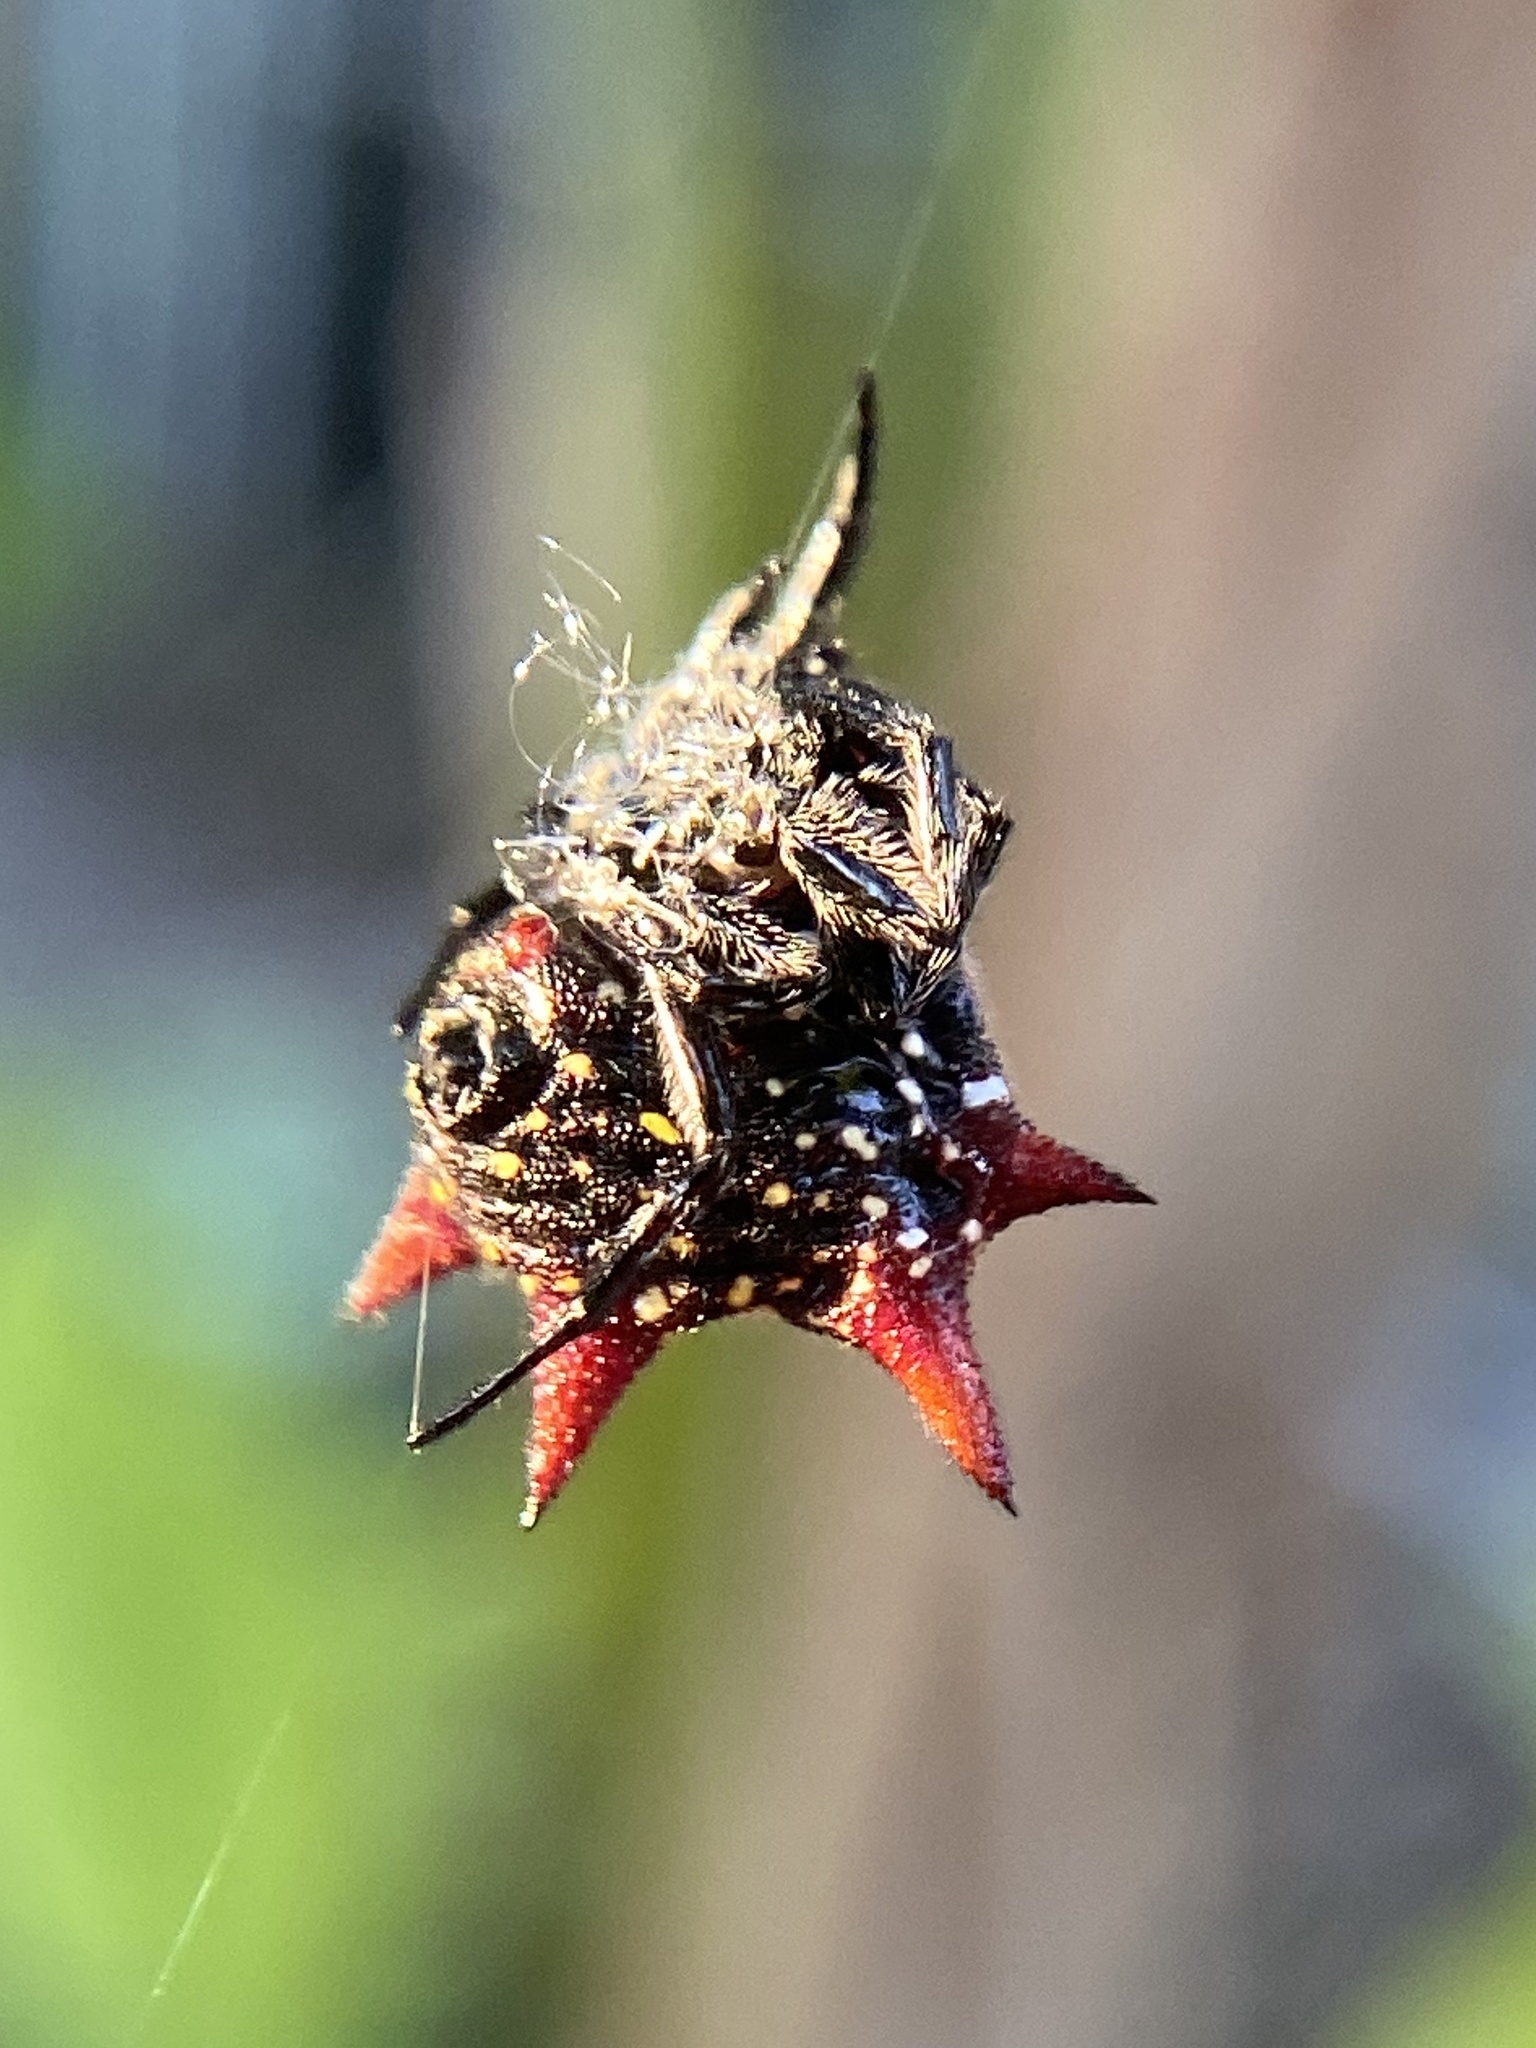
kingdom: Animalia
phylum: Arthropoda
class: Arachnida
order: Araneae
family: Araneidae
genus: Gasteracantha
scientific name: Gasteracantha cancriformis
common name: Orb weavers
